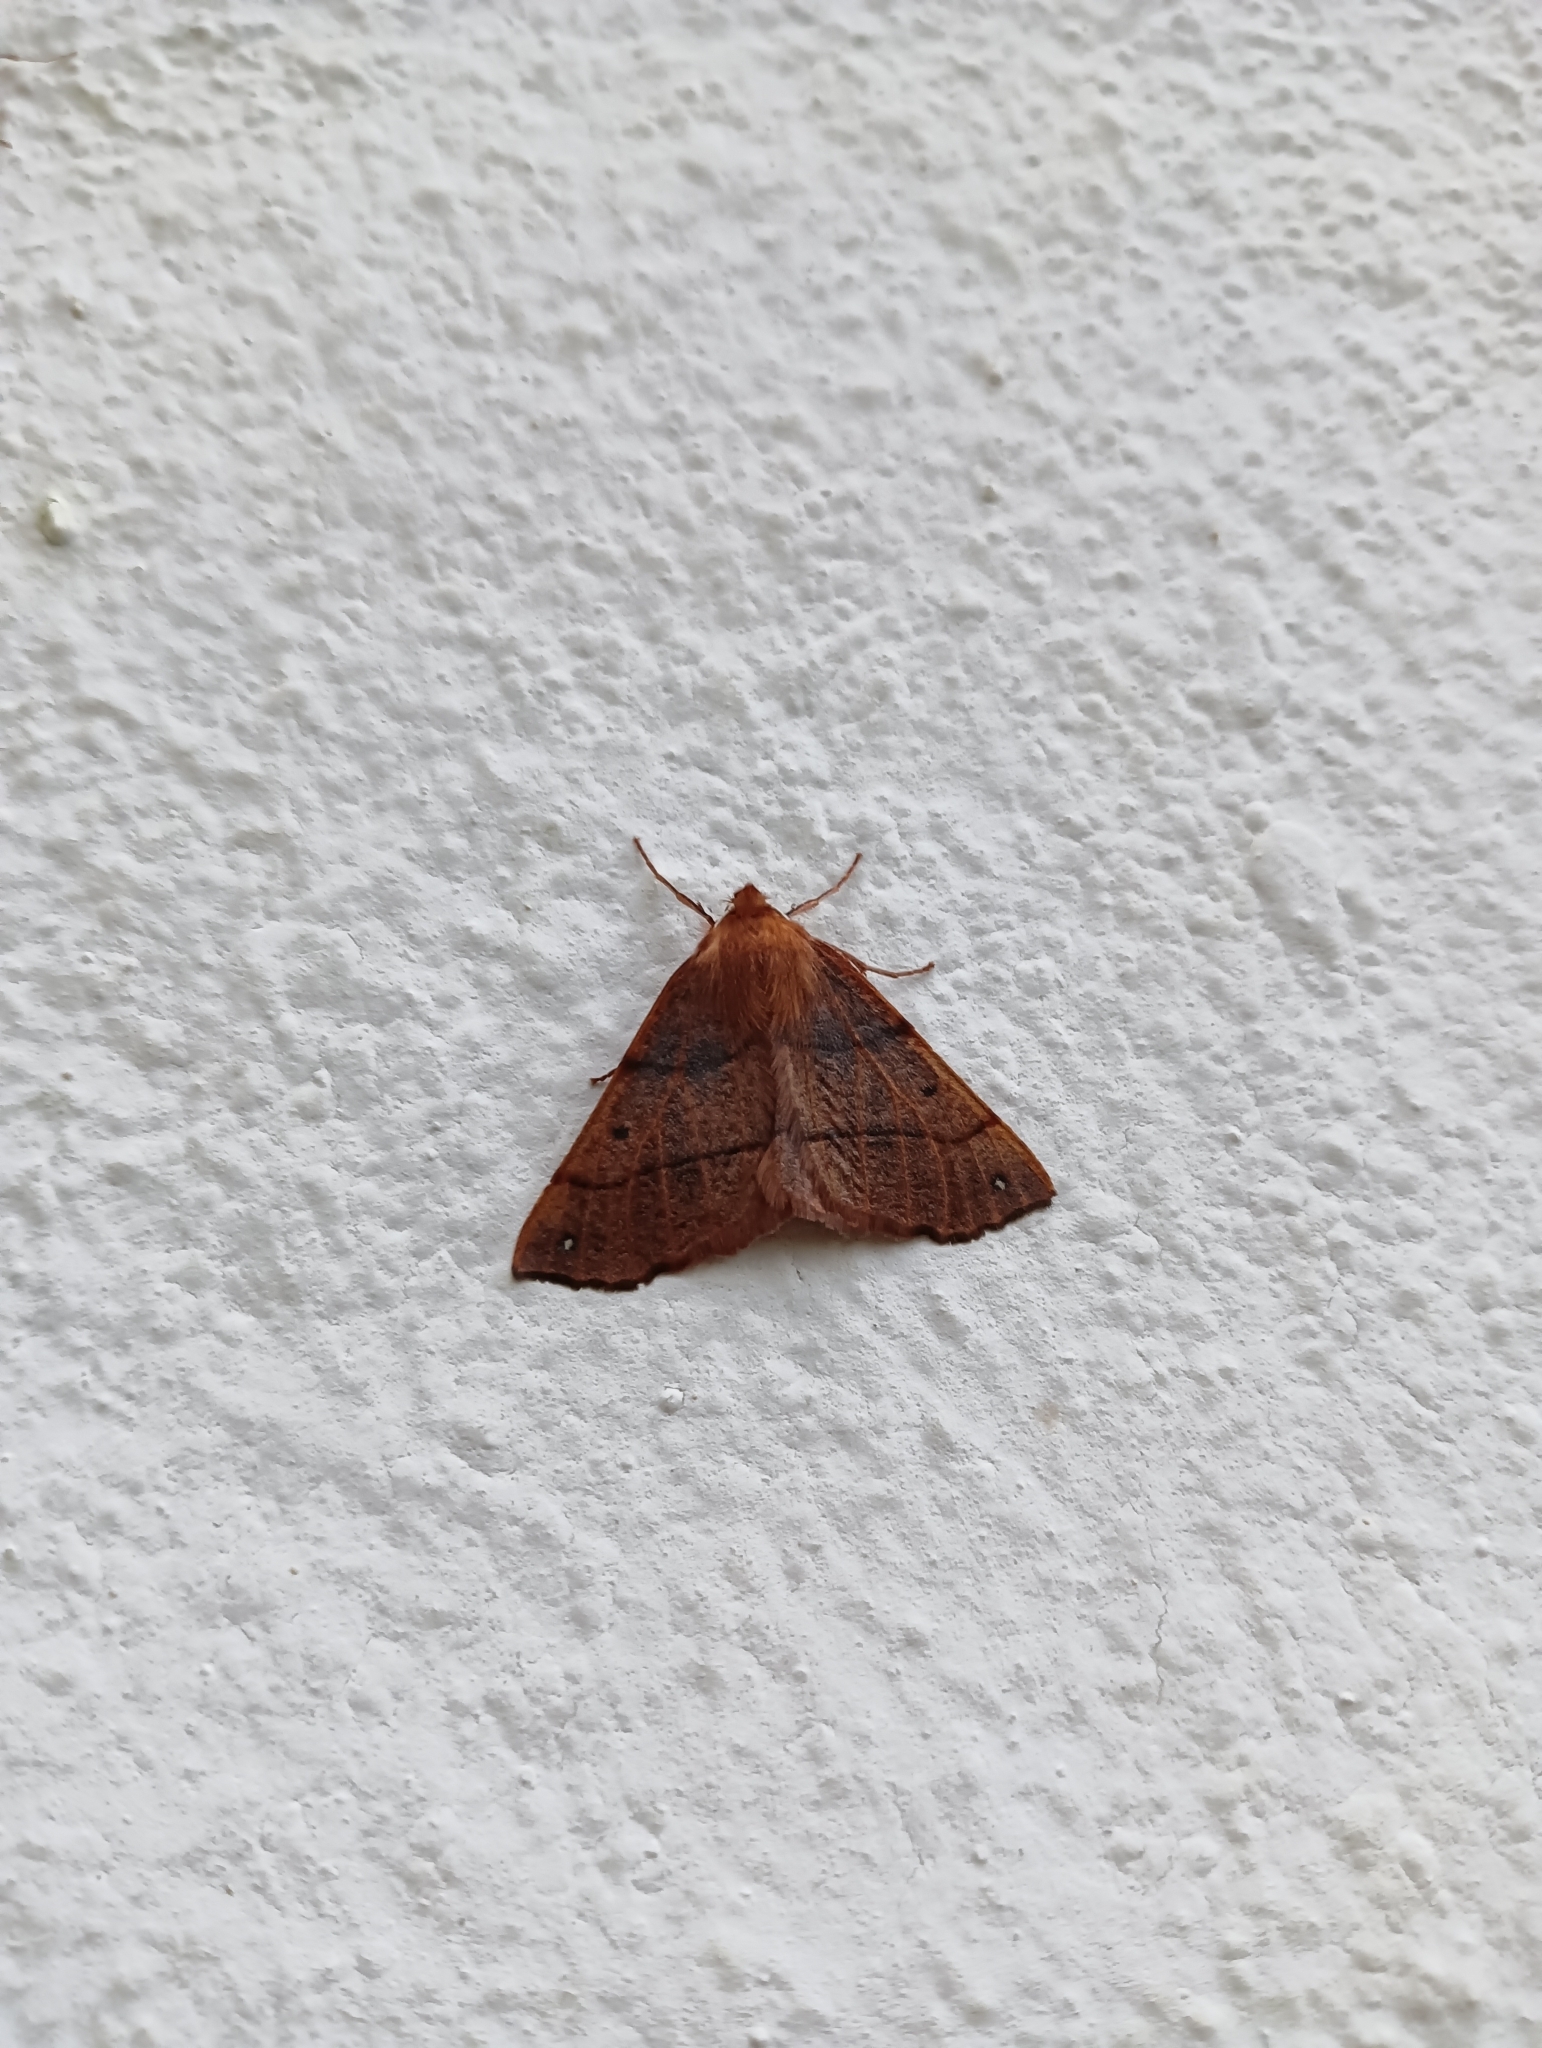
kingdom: Animalia
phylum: Arthropoda
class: Insecta
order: Lepidoptera
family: Geometridae
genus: Colotois
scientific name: Colotois pennaria
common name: Feathered thorn
